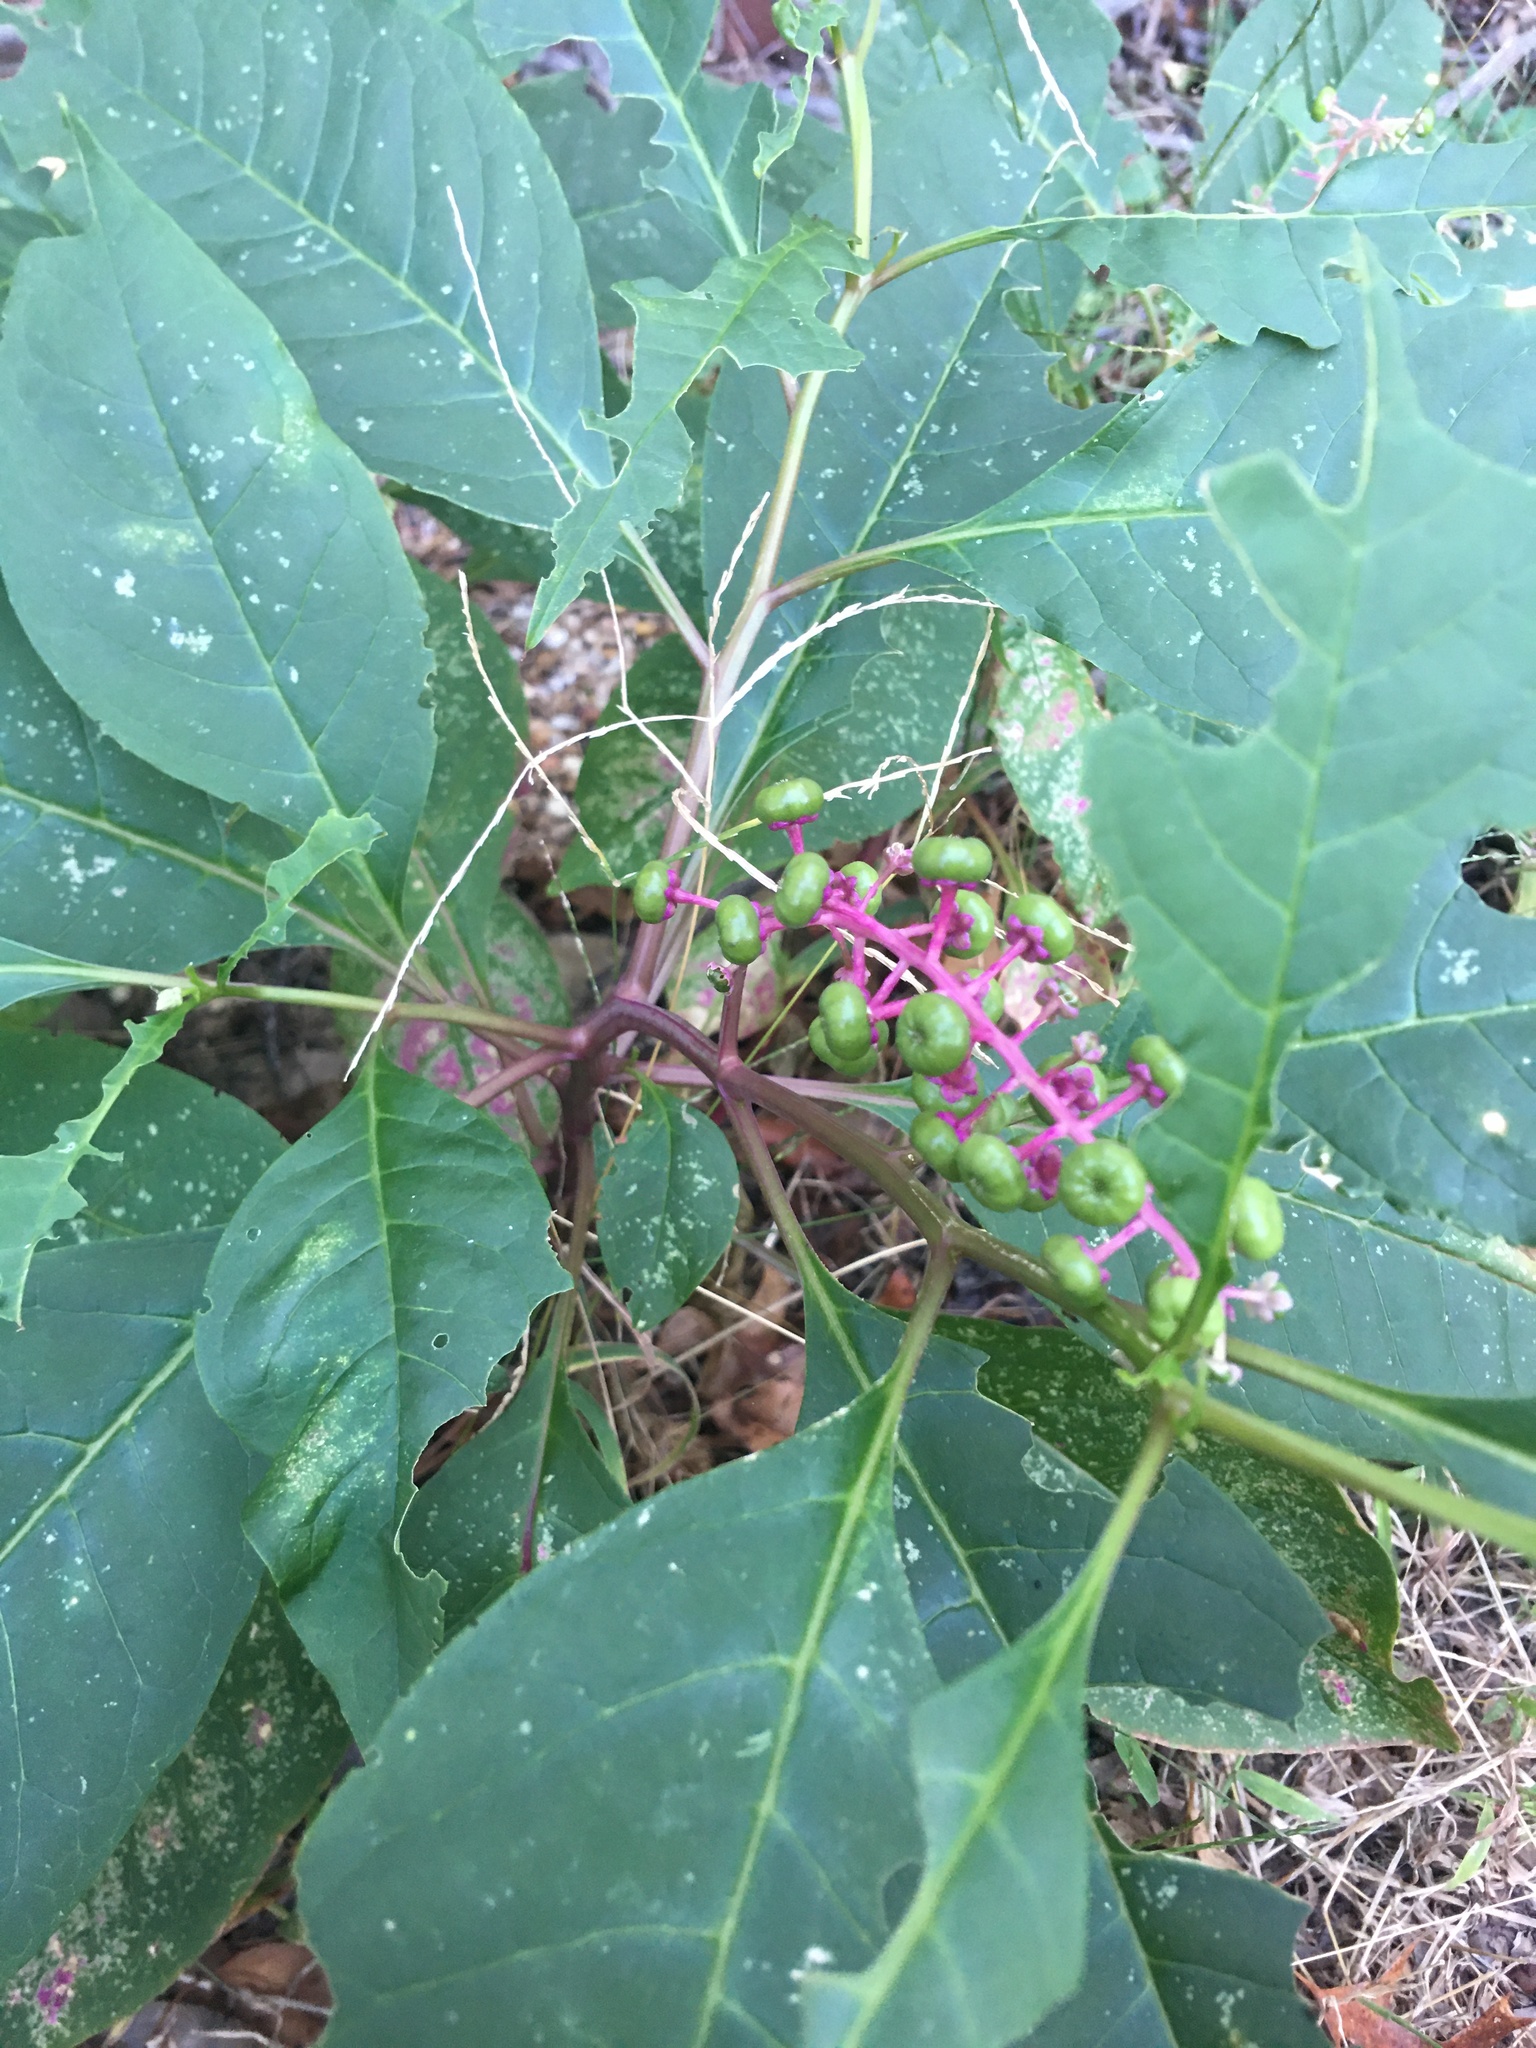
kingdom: Plantae
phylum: Tracheophyta
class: Magnoliopsida
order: Caryophyllales
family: Phytolaccaceae
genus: Phytolacca
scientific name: Phytolacca americana
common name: American pokeweed
